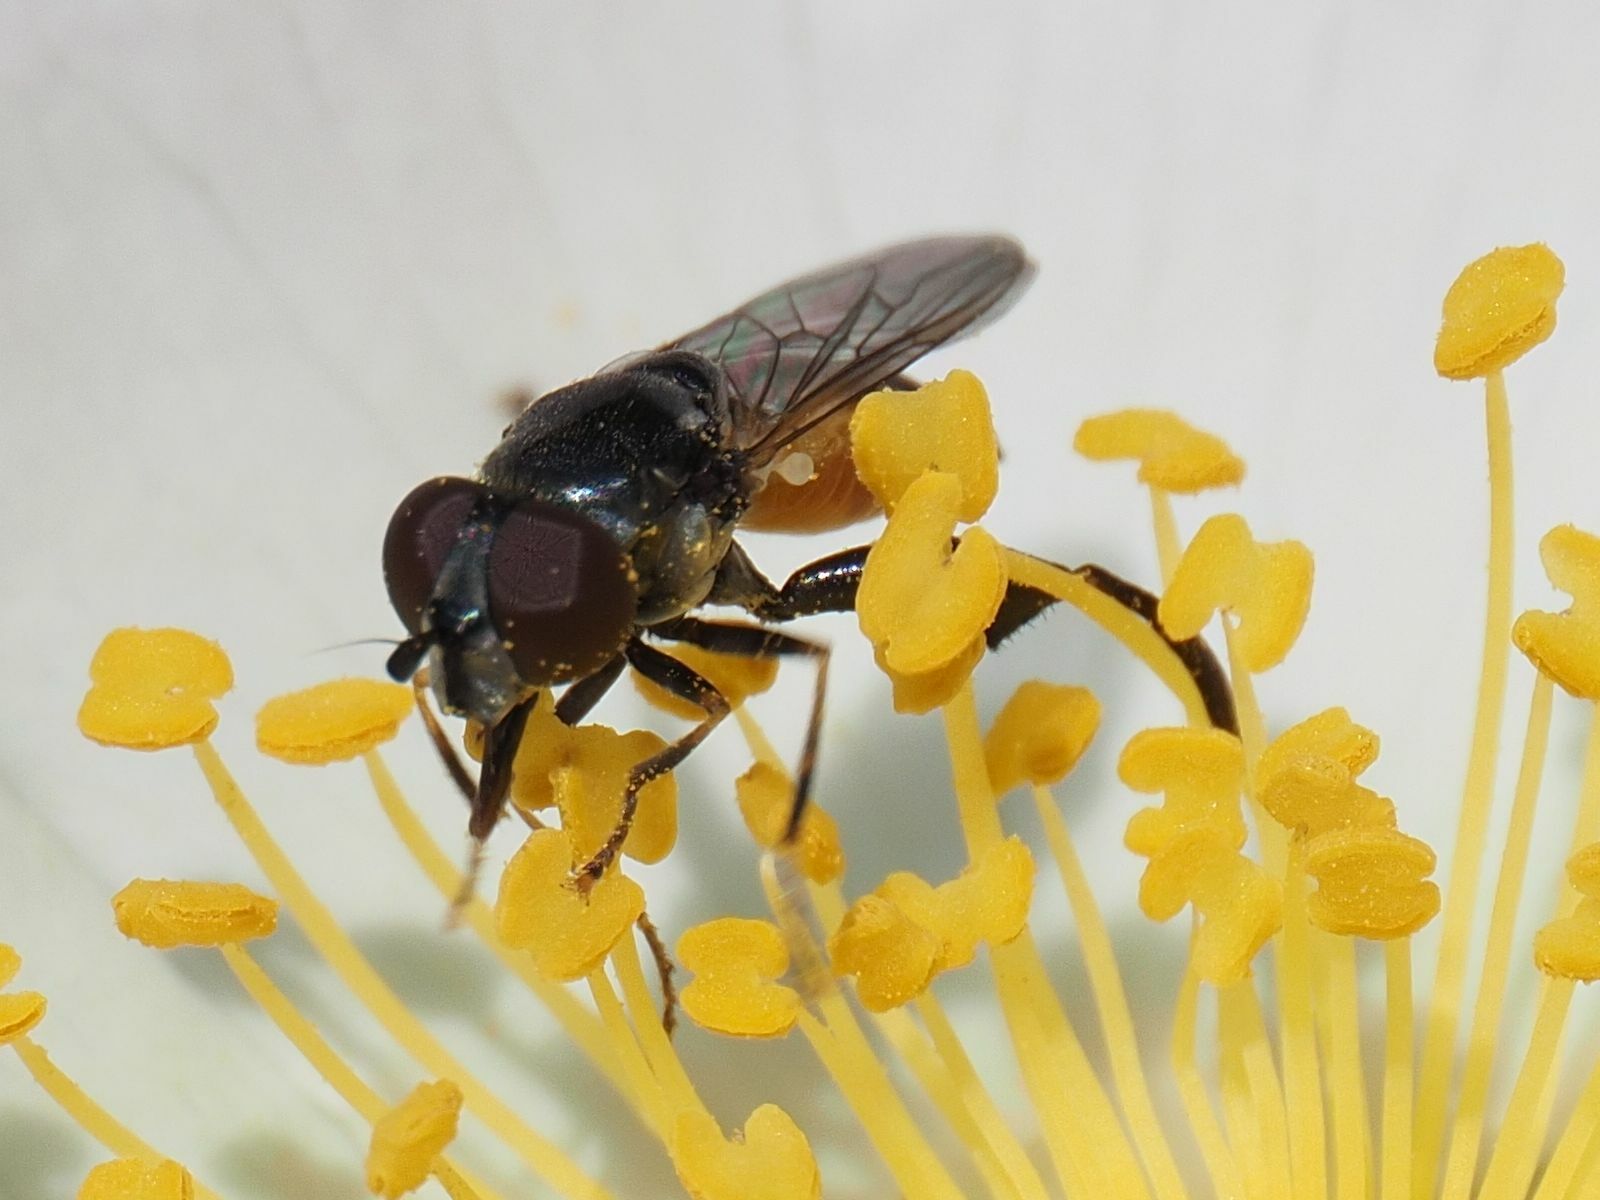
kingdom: Animalia
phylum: Arthropoda
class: Insecta
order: Diptera
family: Syrphidae
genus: Tropidia
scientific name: Tropidia scita
